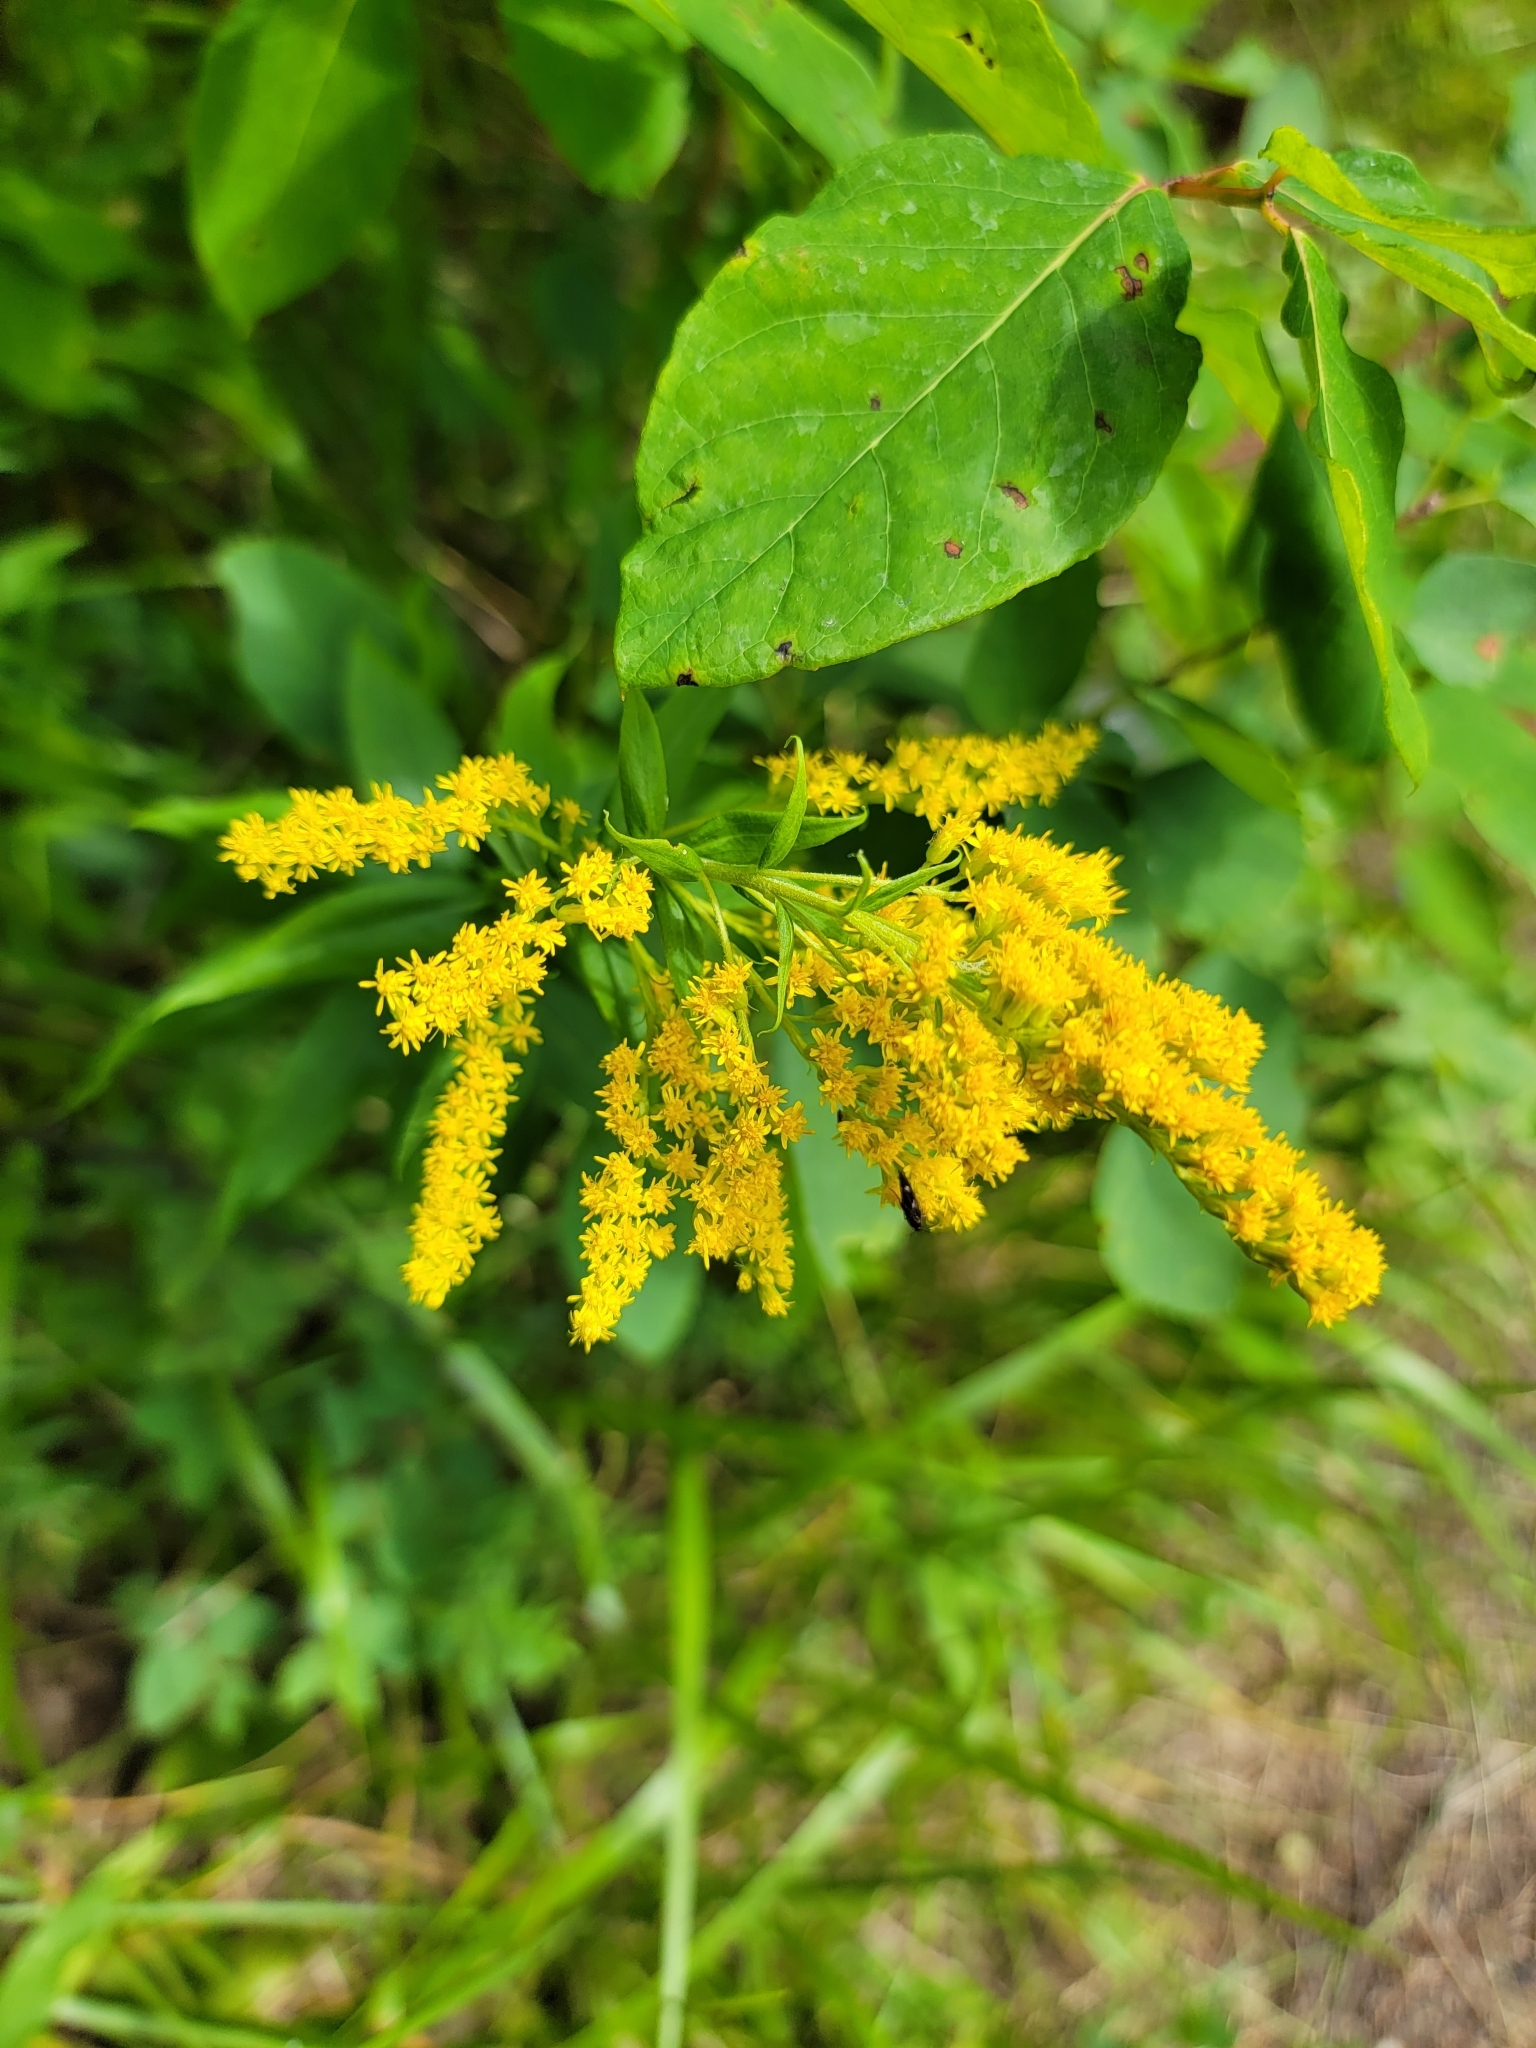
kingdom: Plantae
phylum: Tracheophyta
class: Magnoliopsida
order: Asterales
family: Asteraceae
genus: Solidago
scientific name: Solidago canadensis
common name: Canada goldenrod
